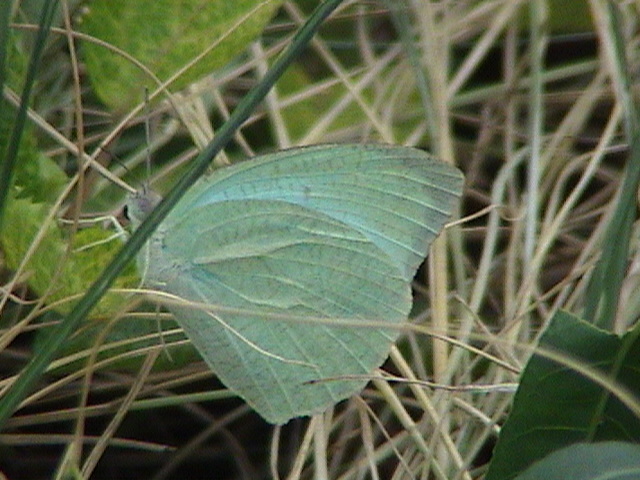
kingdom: Animalia
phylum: Arthropoda
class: Insecta
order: Lepidoptera
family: Pieridae
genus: Catopsilia
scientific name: Catopsilia pyranthe
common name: Mottled emigrant
